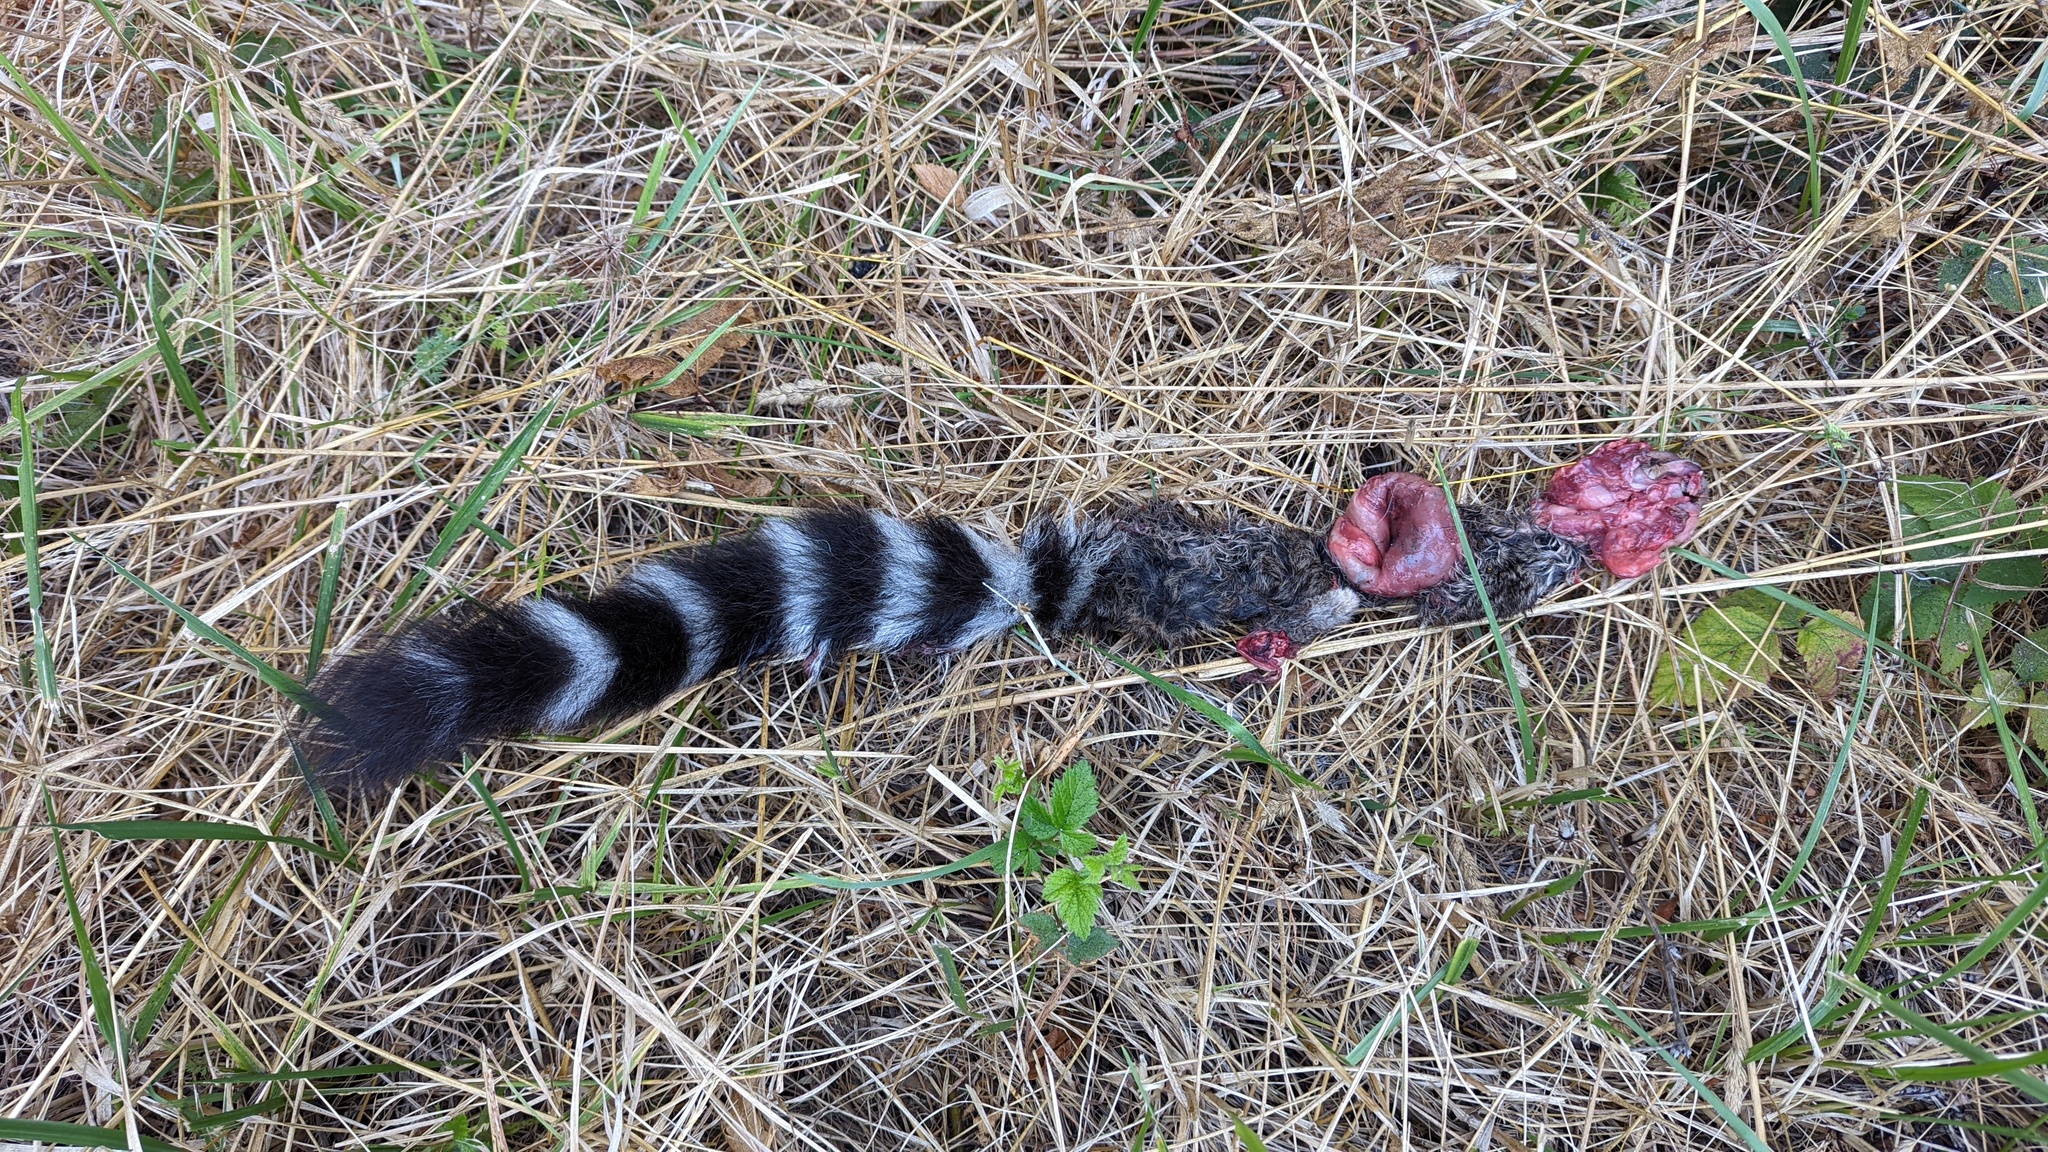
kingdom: Animalia
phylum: Chordata
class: Mammalia
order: Carnivora
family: Procyonidae
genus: Bassariscus
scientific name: Bassariscus astutus
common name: Ringtail
